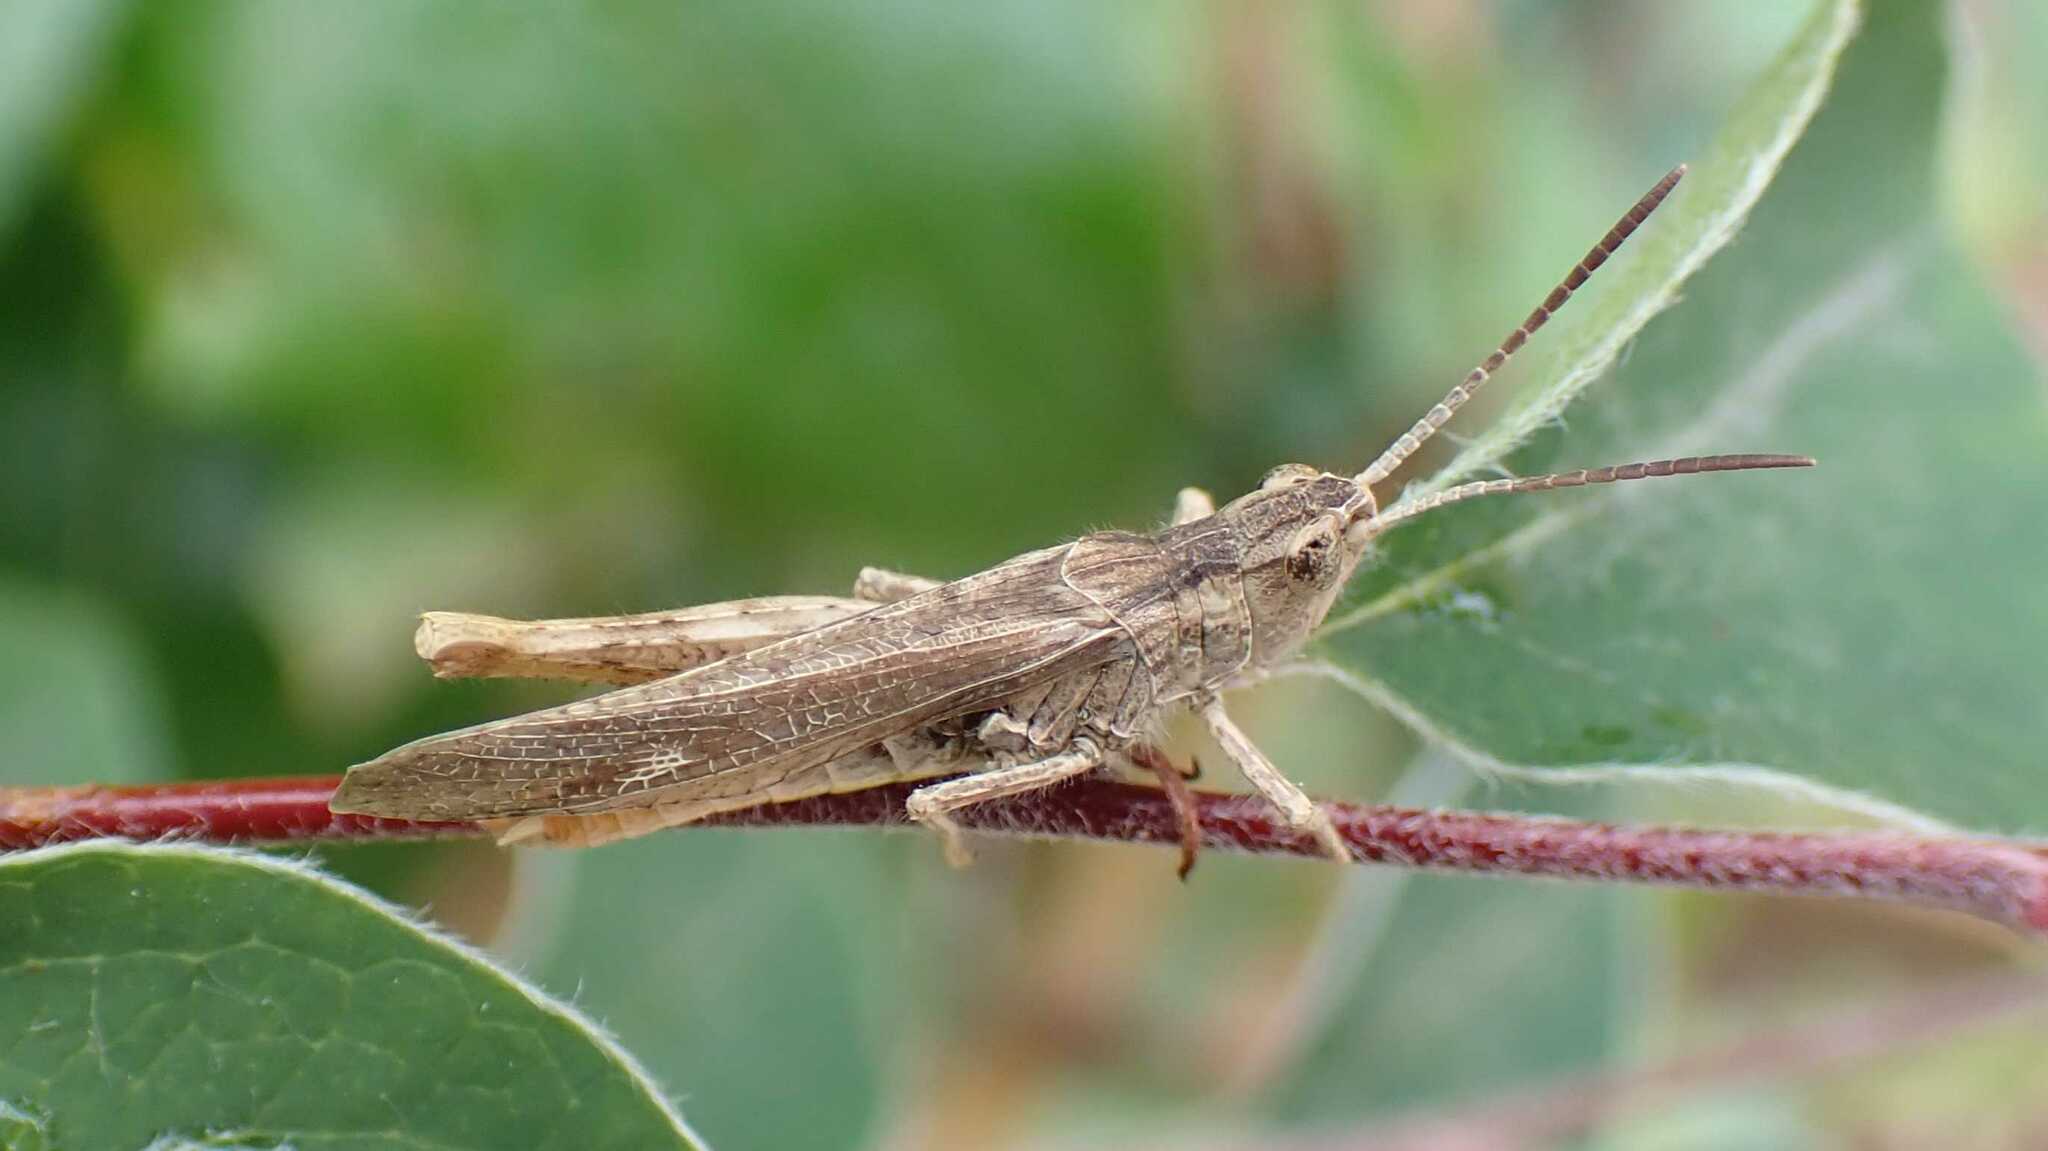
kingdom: Animalia
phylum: Arthropoda
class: Insecta
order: Orthoptera
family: Acrididae
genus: Chorthippus
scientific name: Chorthippus brunneus
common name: Field grasshopper
